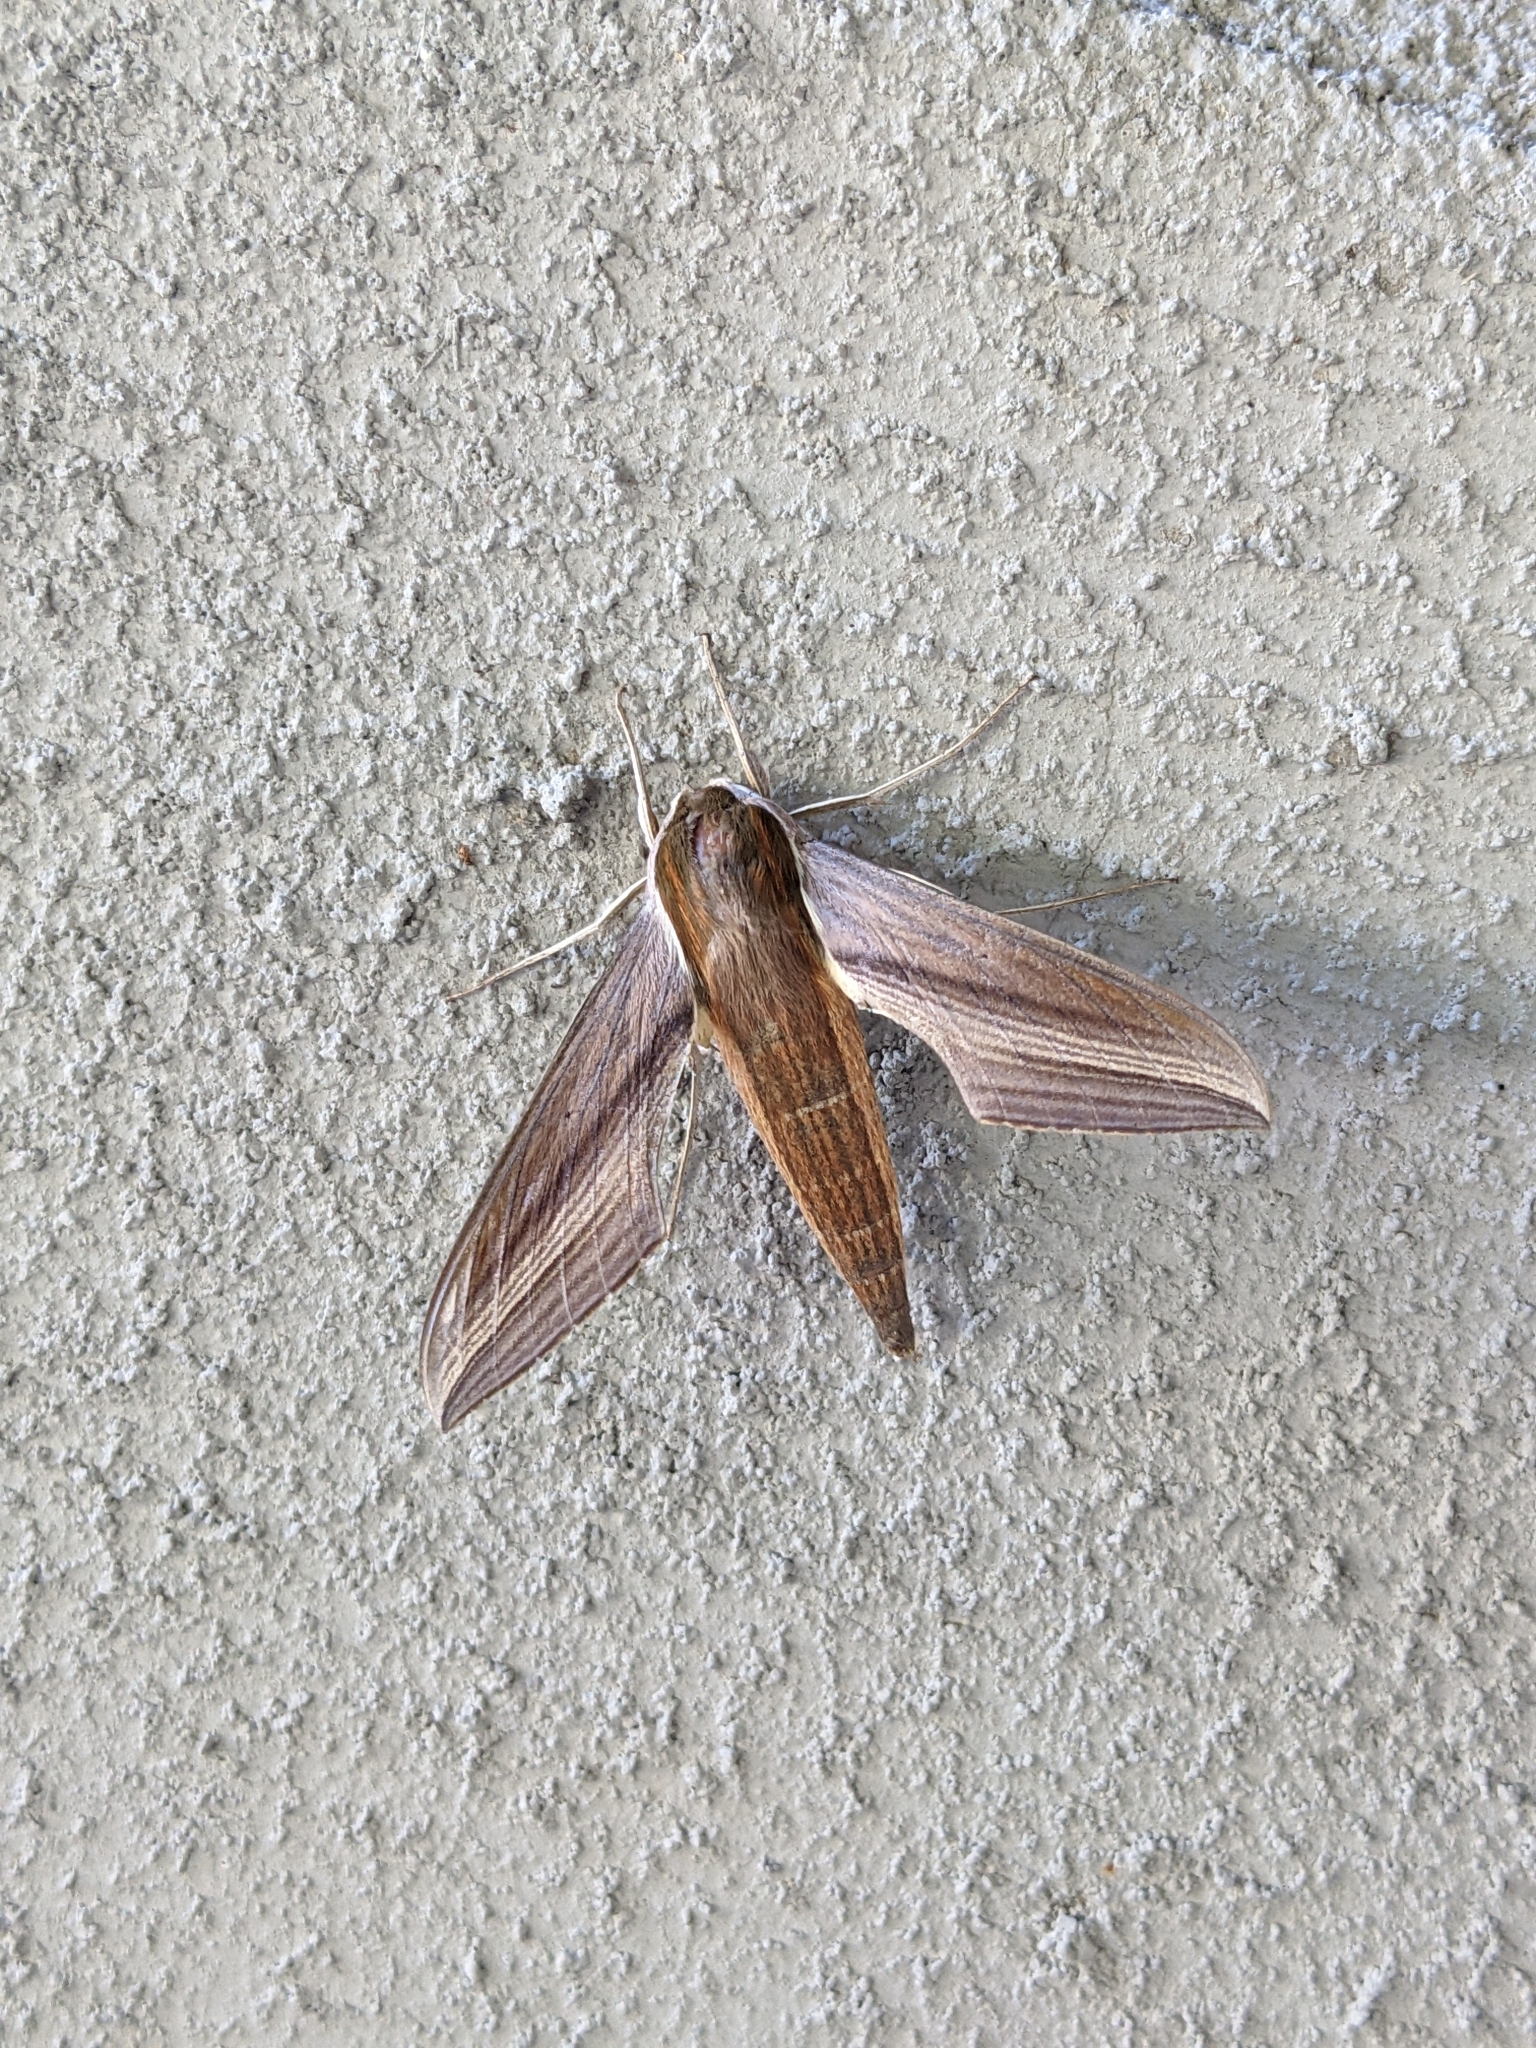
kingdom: Animalia
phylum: Arthropoda
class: Insecta
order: Lepidoptera
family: Sphingidae
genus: Xylophanes
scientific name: Xylophanes tersa
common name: Tersa sphinx
